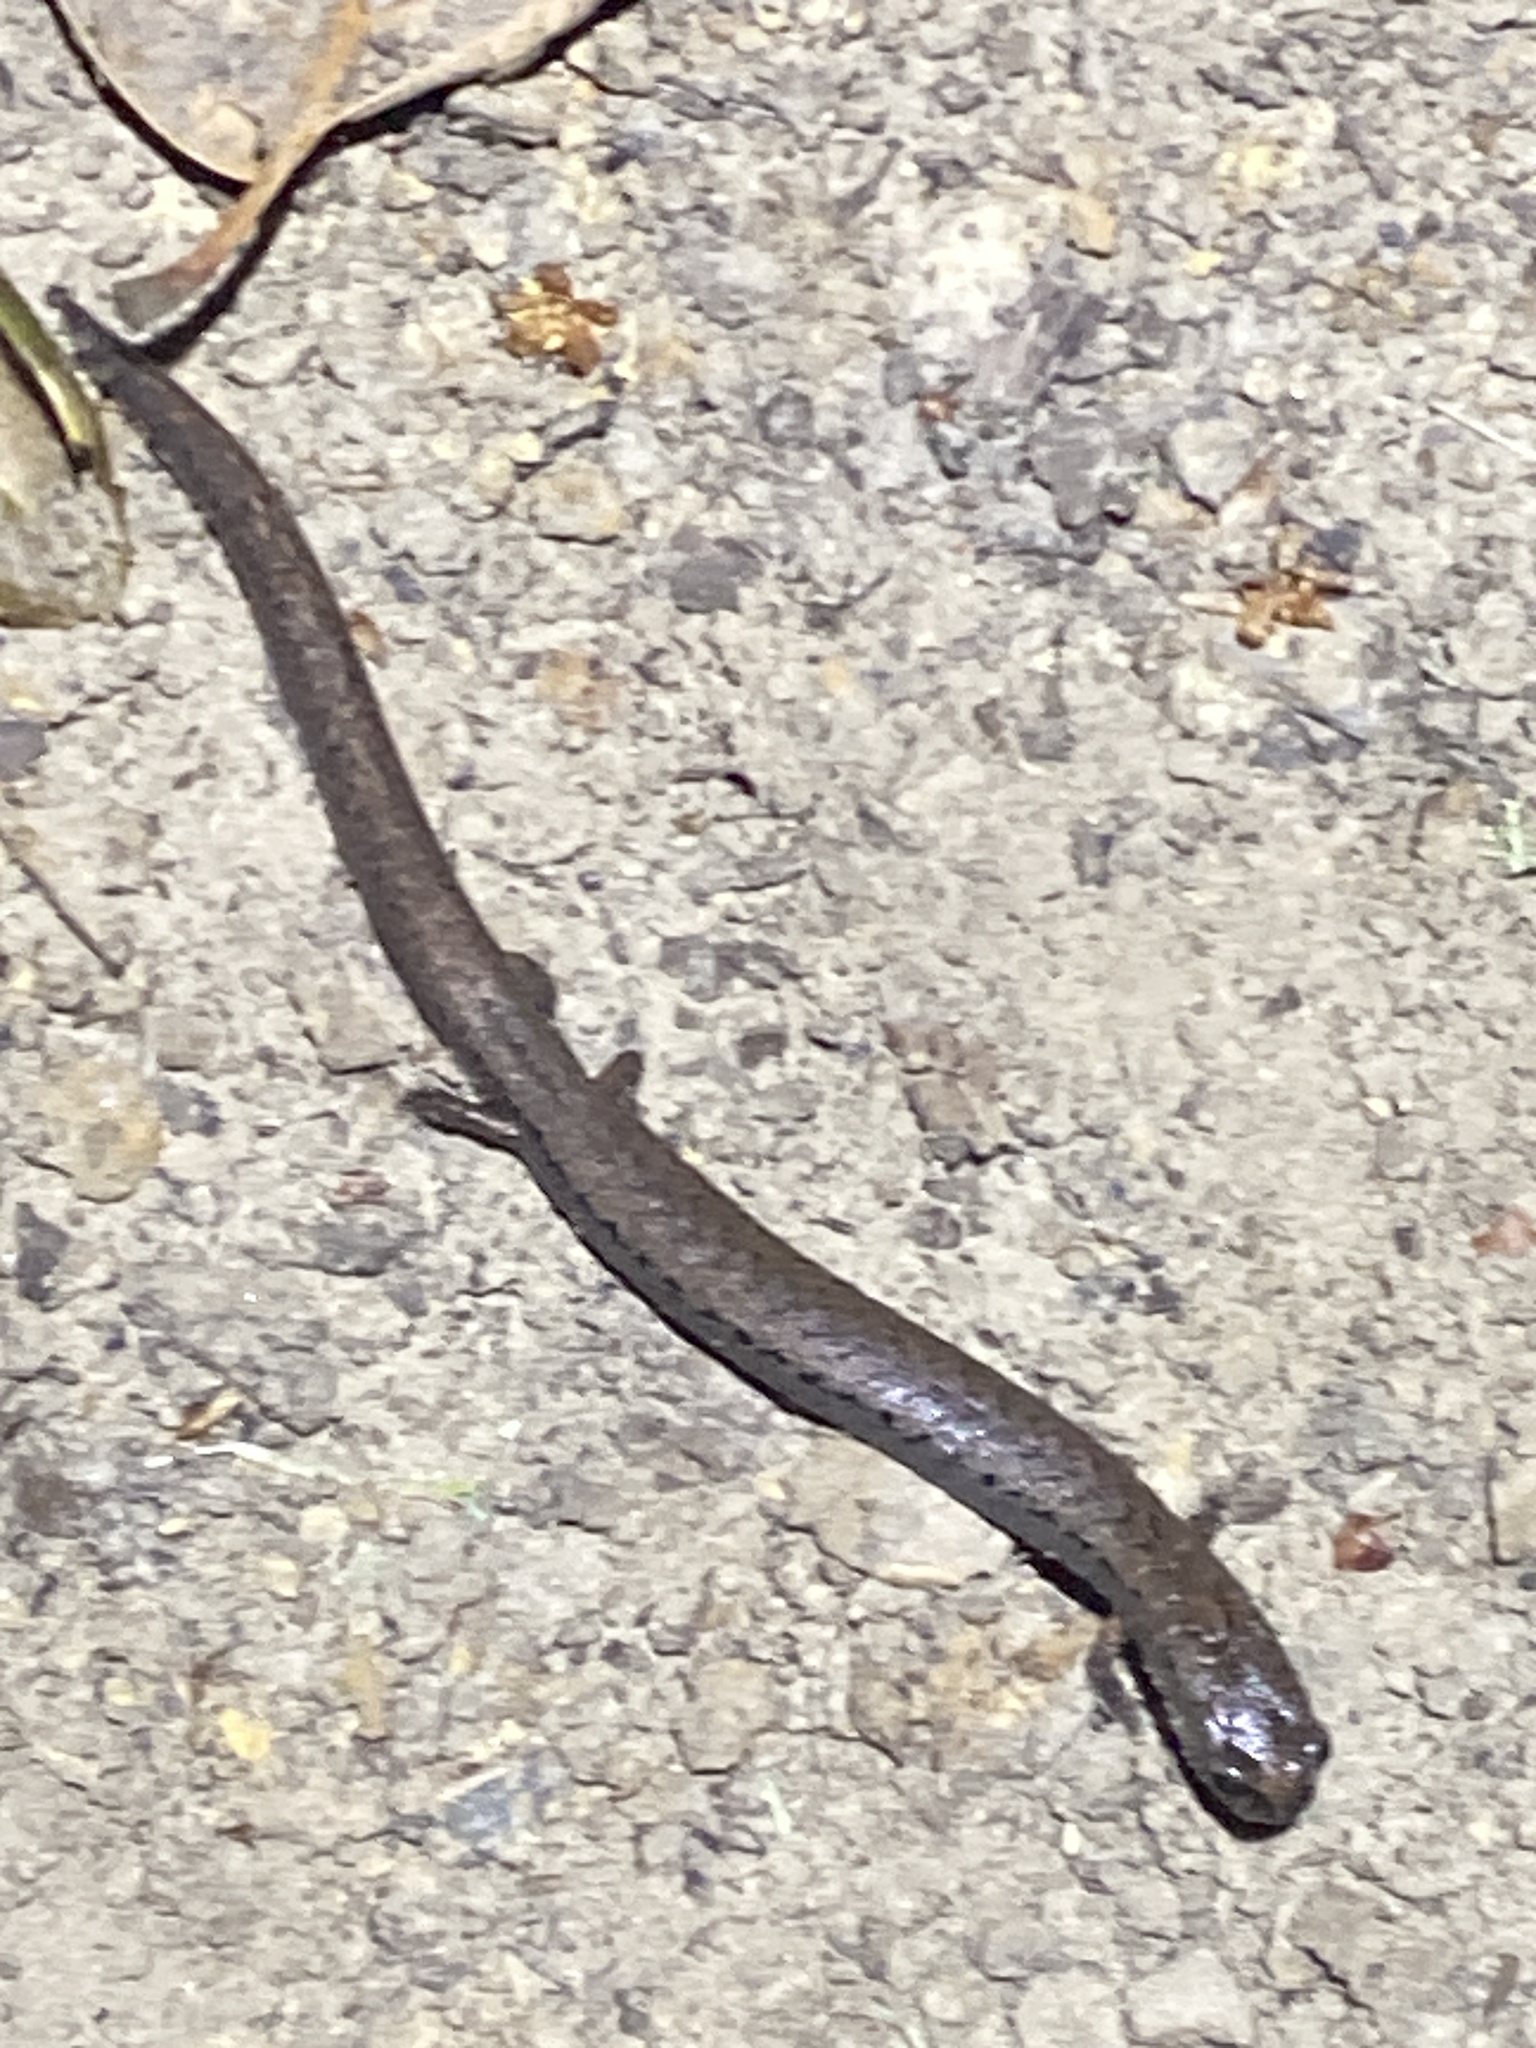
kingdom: Animalia
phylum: Chordata
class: Amphibia
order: Caudata
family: Plethodontidae
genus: Batrachoseps
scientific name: Batrachoseps attenuatus
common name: California slender salamander
